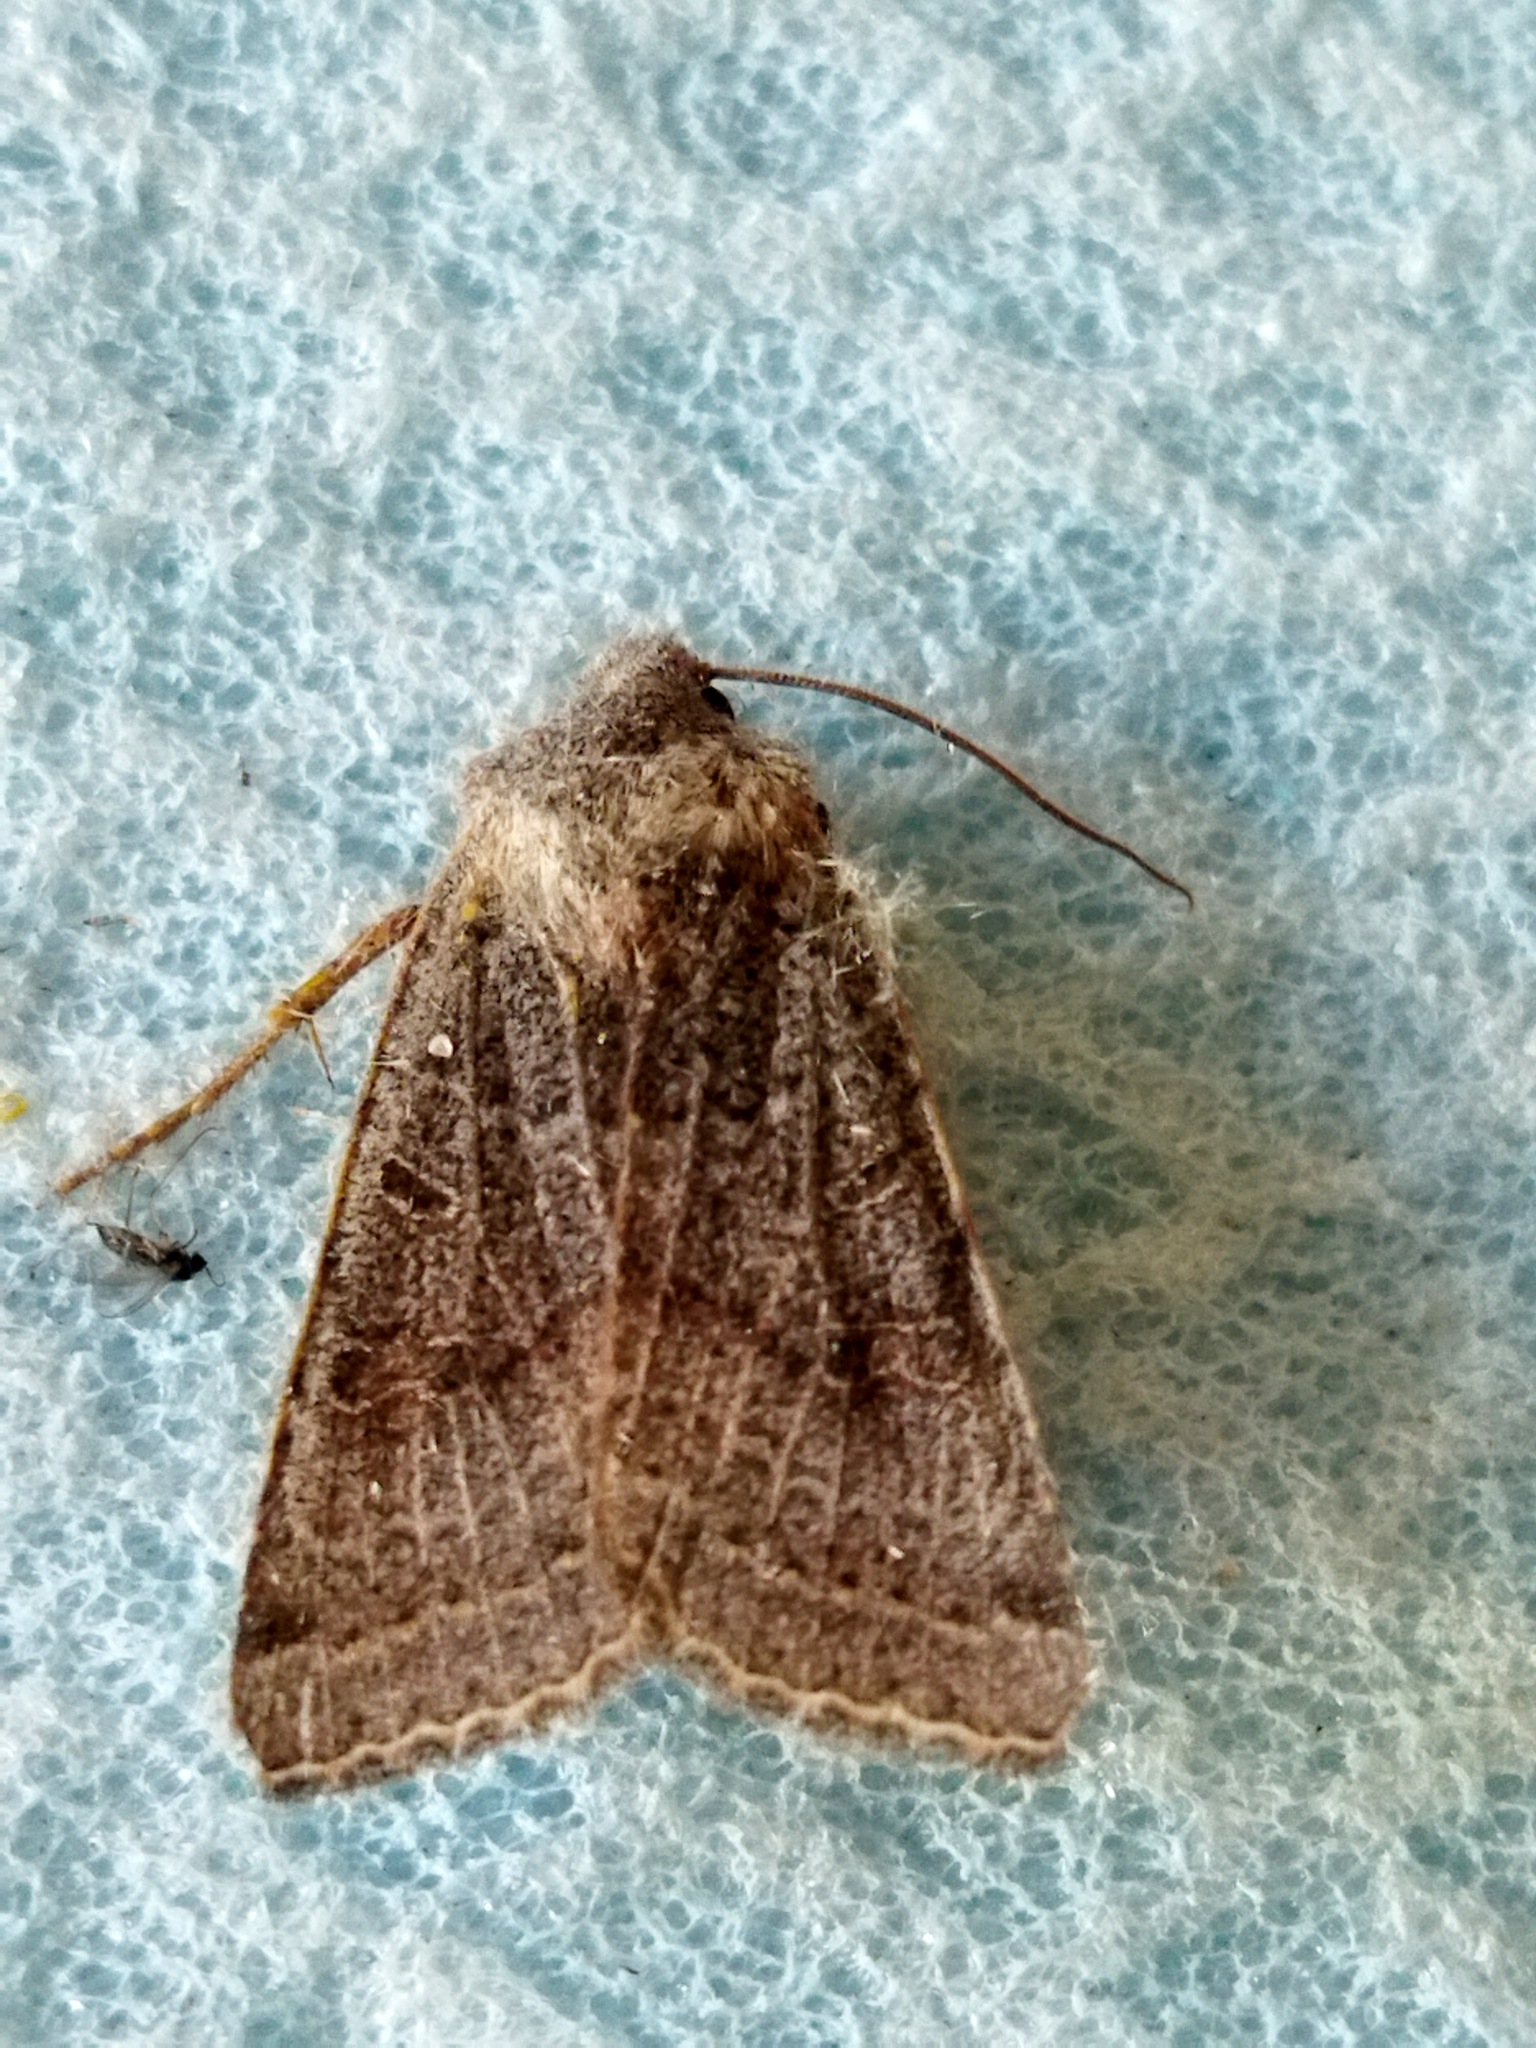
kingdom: Animalia
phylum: Arthropoda
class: Insecta
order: Lepidoptera
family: Noctuidae
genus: Agrochola
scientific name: Agrochola lychnidis
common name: Beaded chestnut
